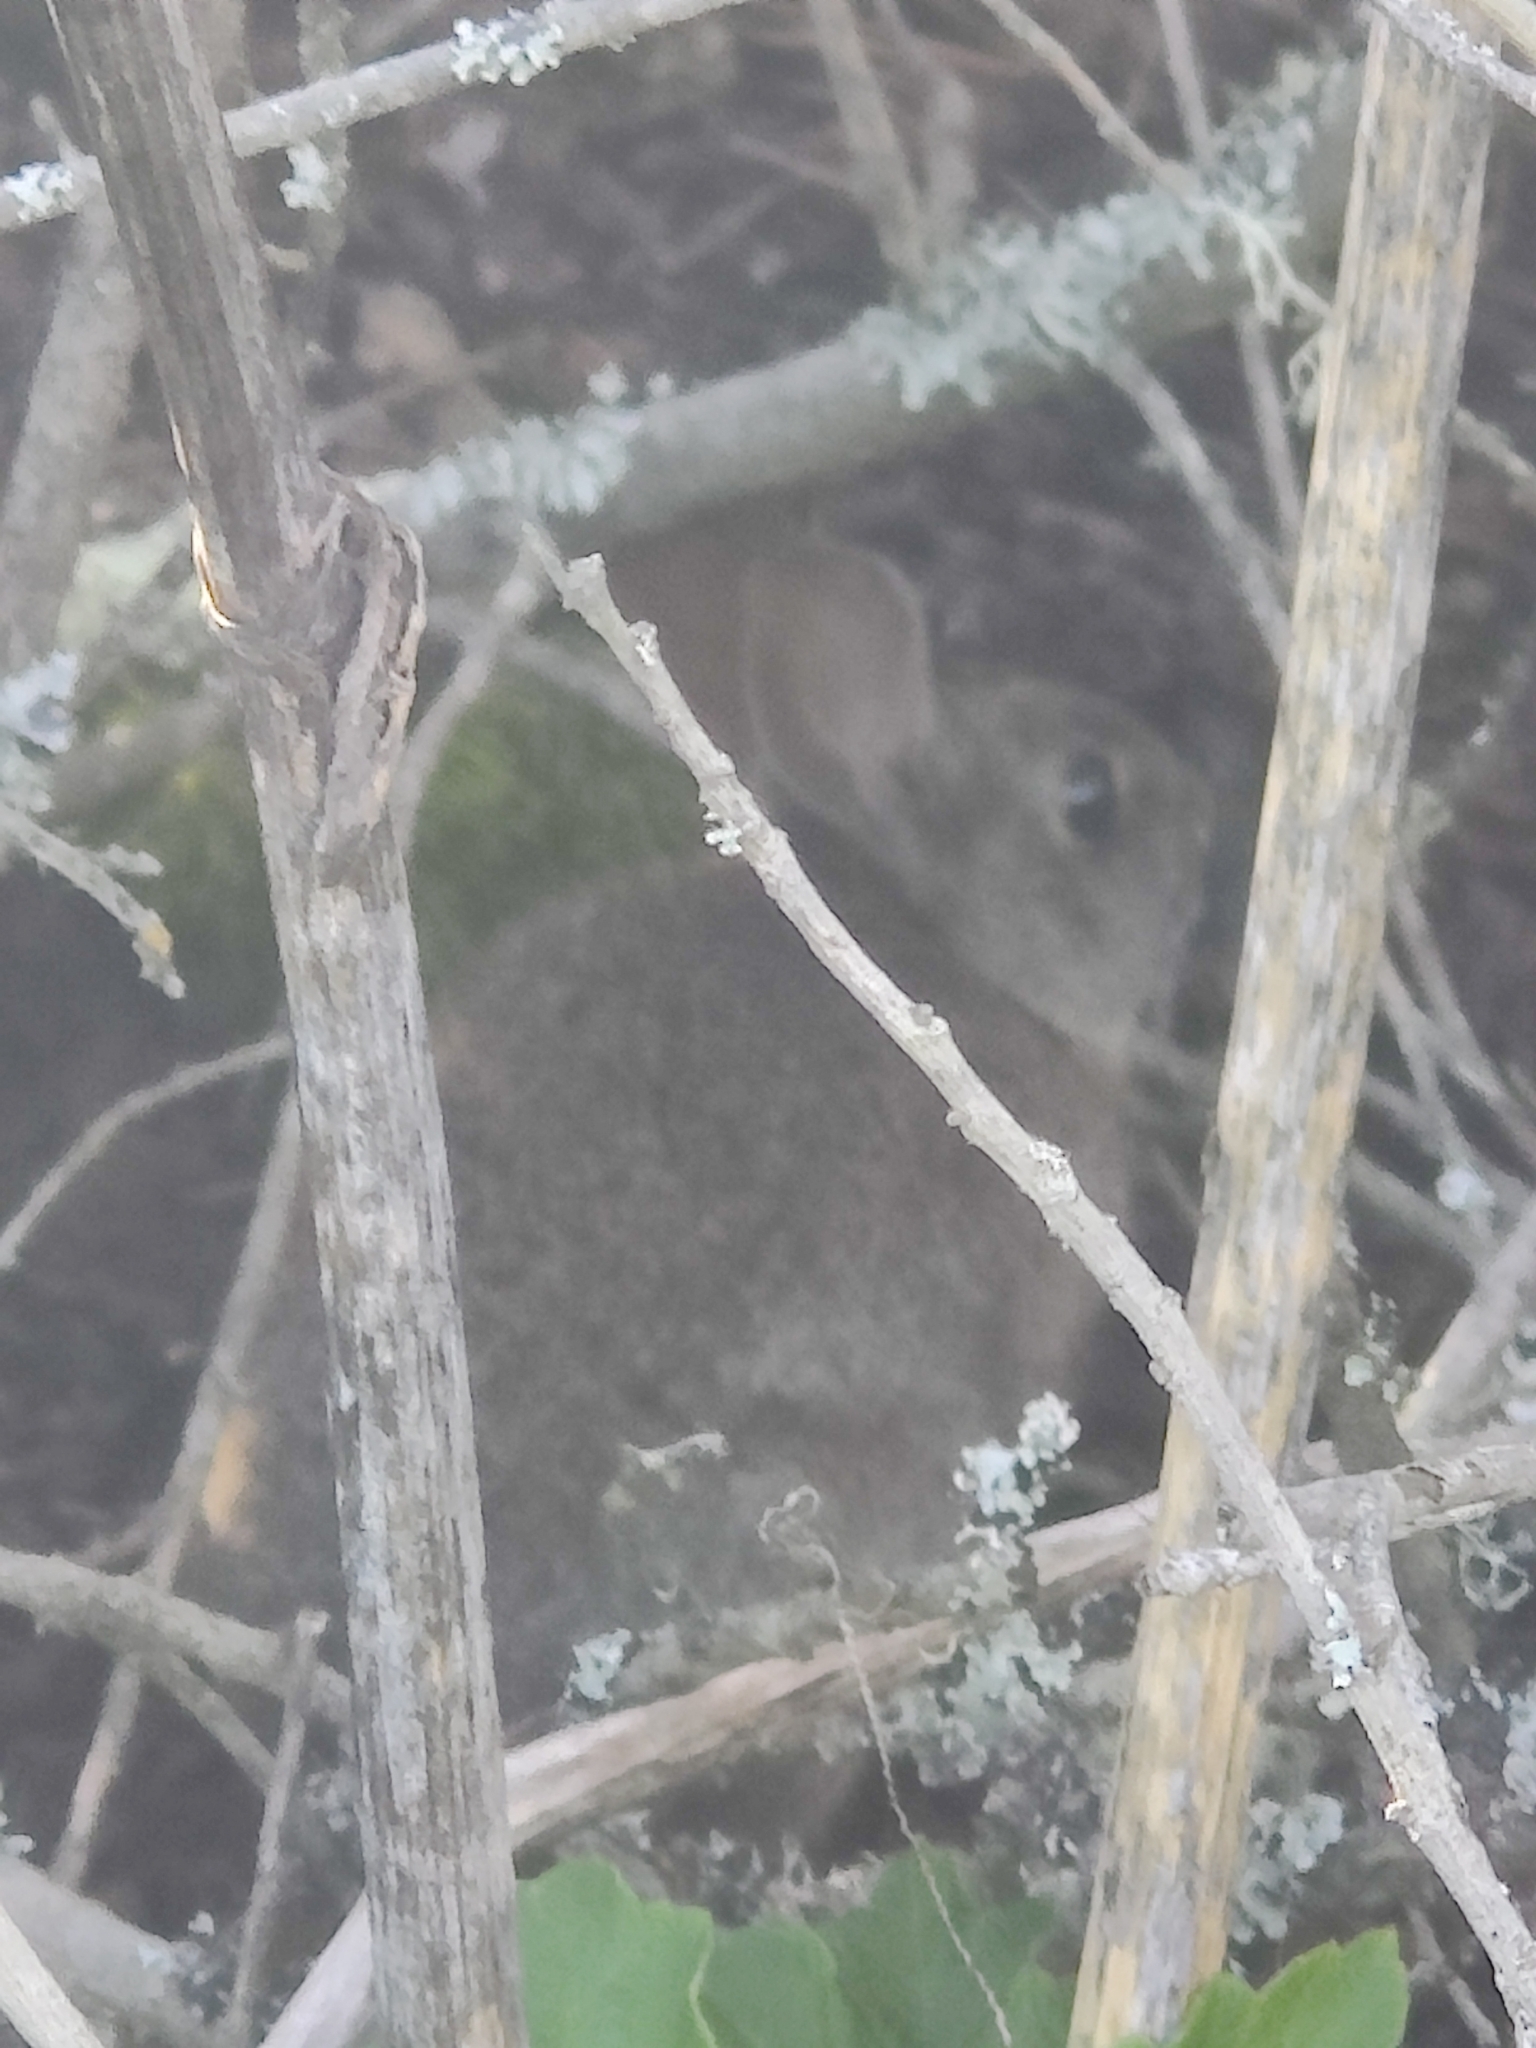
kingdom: Animalia
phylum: Chordata
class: Mammalia
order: Lagomorpha
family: Leporidae
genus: Sylvilagus
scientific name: Sylvilagus bachmani
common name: Brush rabbit
